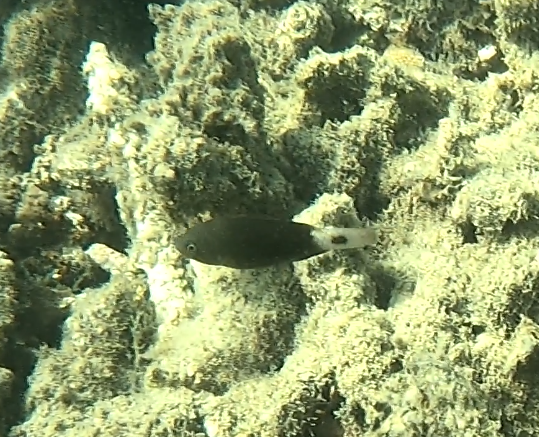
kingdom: Animalia
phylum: Chordata
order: Perciformes
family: Scaridae
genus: Chlorurus
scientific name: Chlorurus spilurus
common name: Bullethead parrotfish
